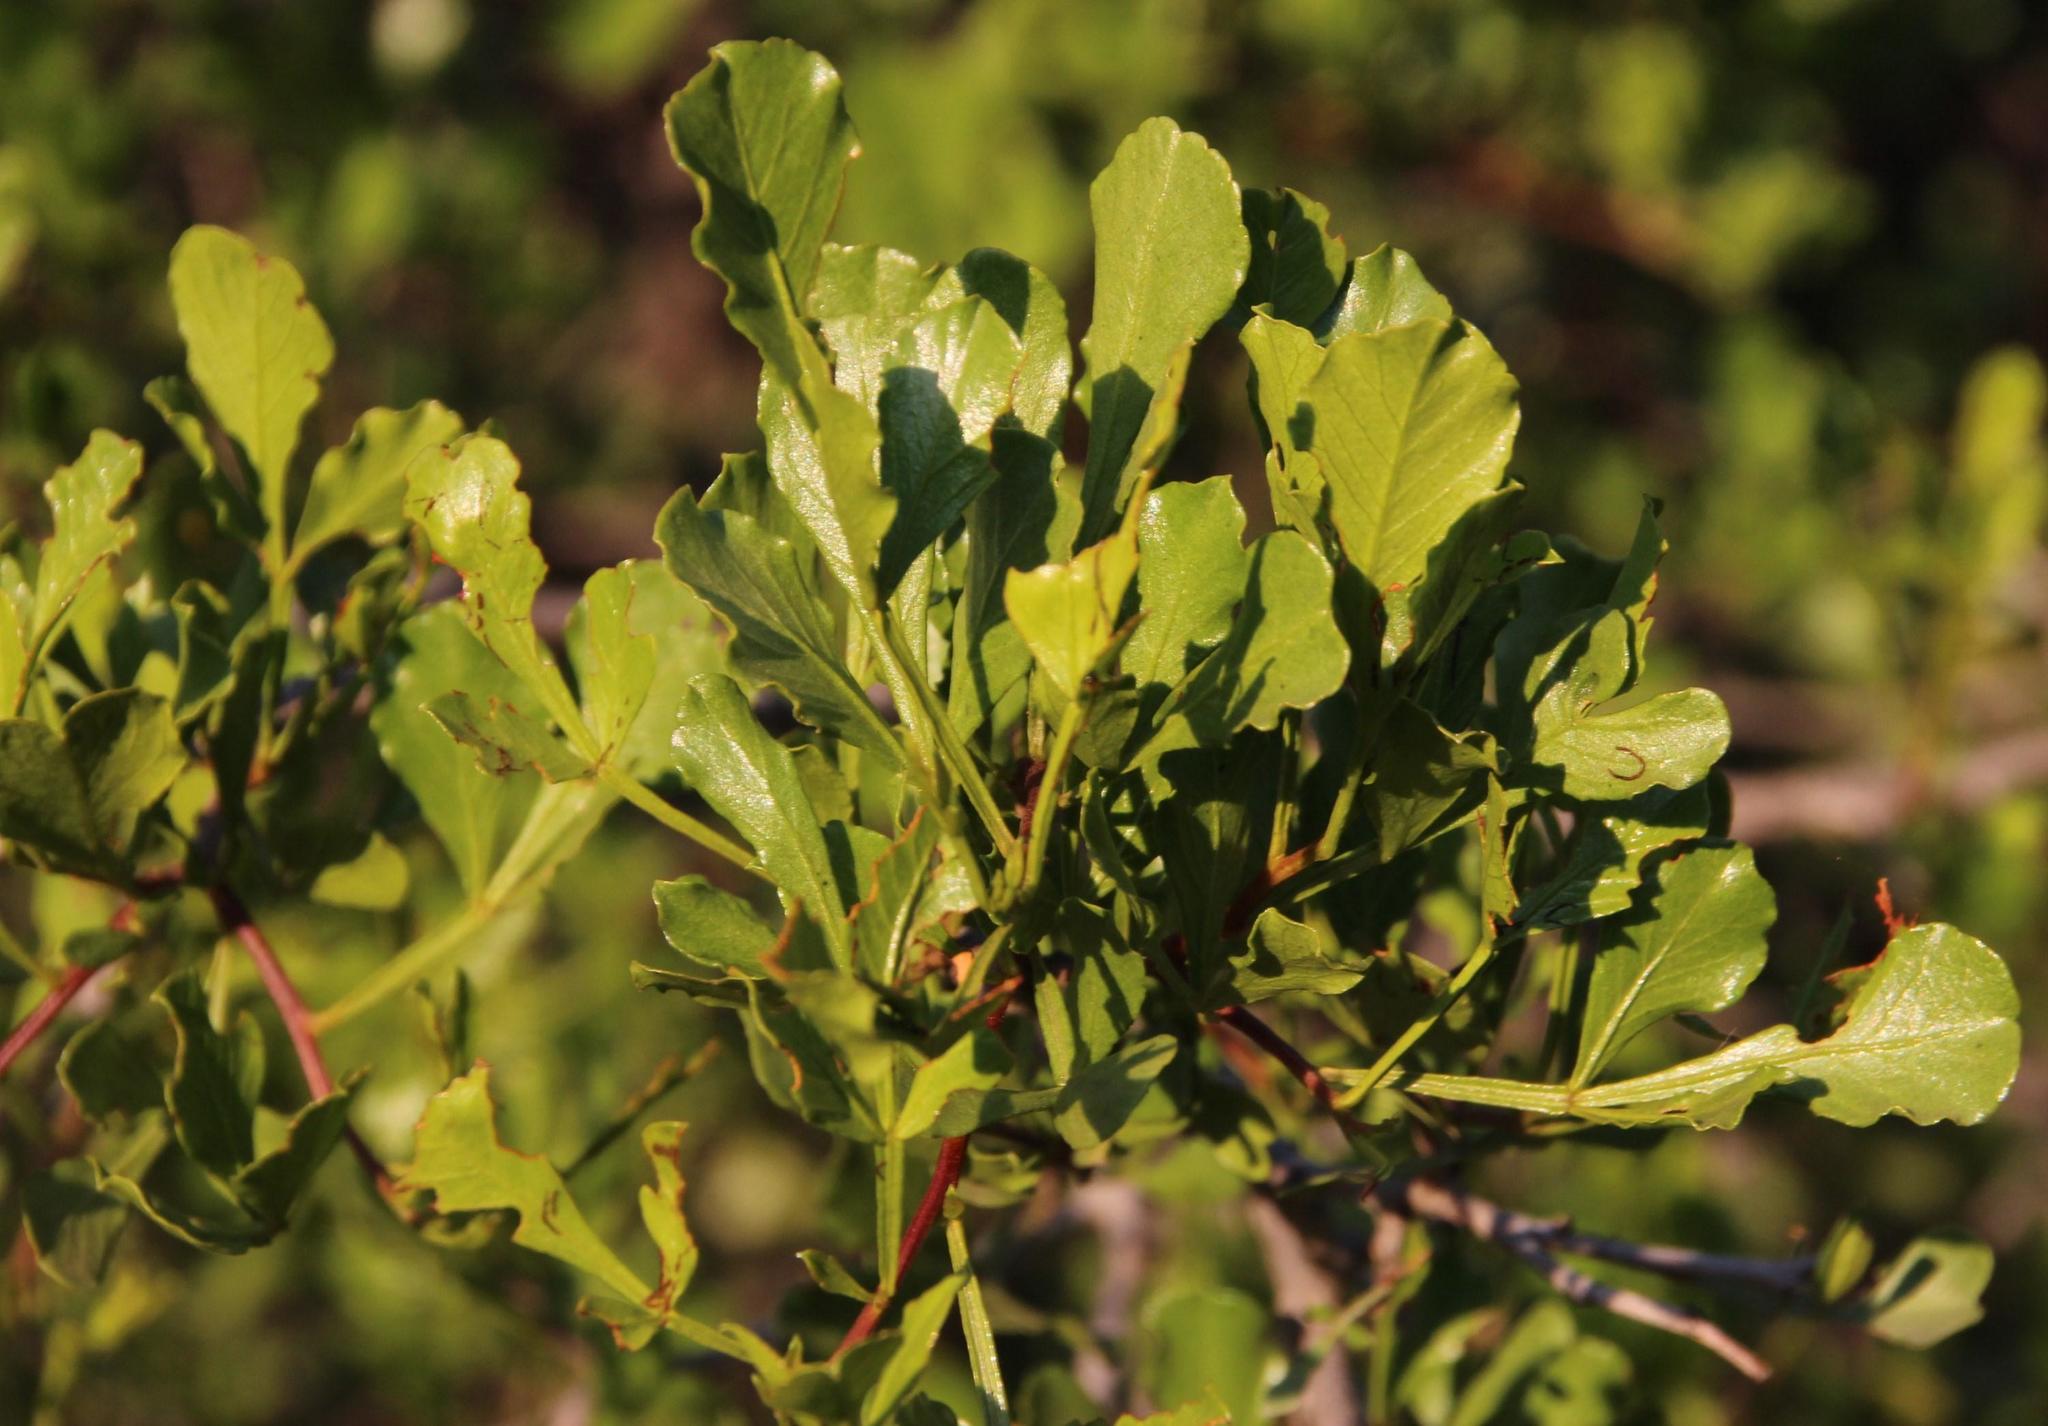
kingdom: Plantae
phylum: Tracheophyta
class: Magnoliopsida
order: Sapindales
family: Anacardiaceae
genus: Searsia
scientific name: Searsia undulata
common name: Namaqua kunibush
